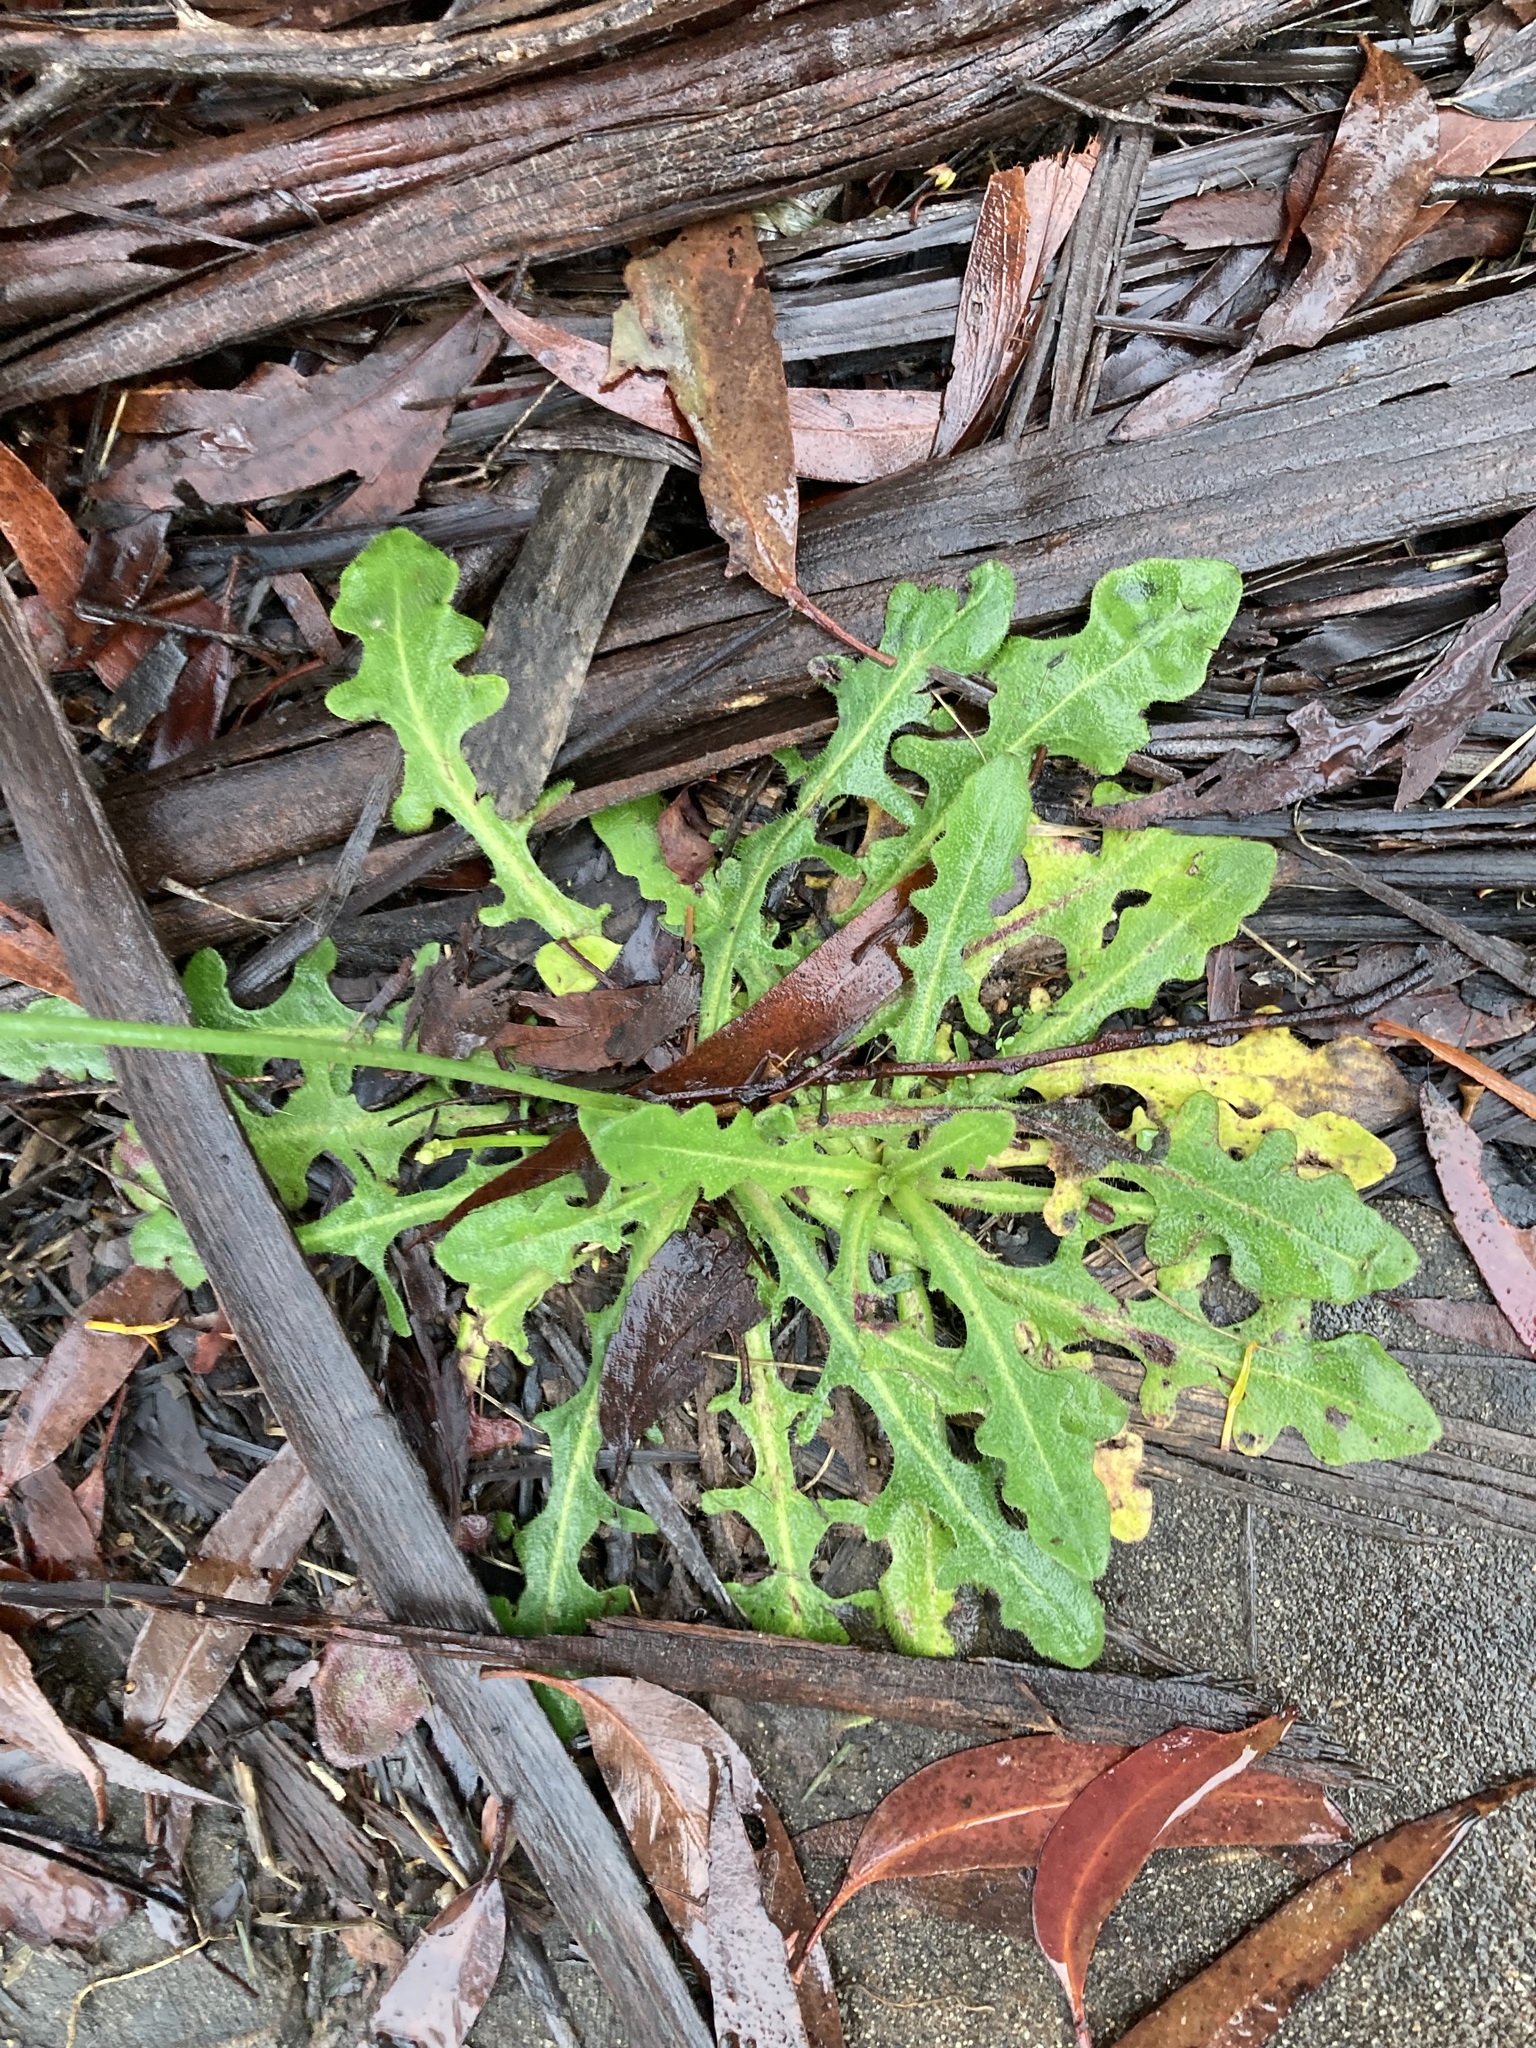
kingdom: Plantae
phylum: Tracheophyta
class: Magnoliopsida
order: Asterales
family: Asteraceae
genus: Hypochaeris
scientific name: Hypochaeris radicata
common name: Flatweed
